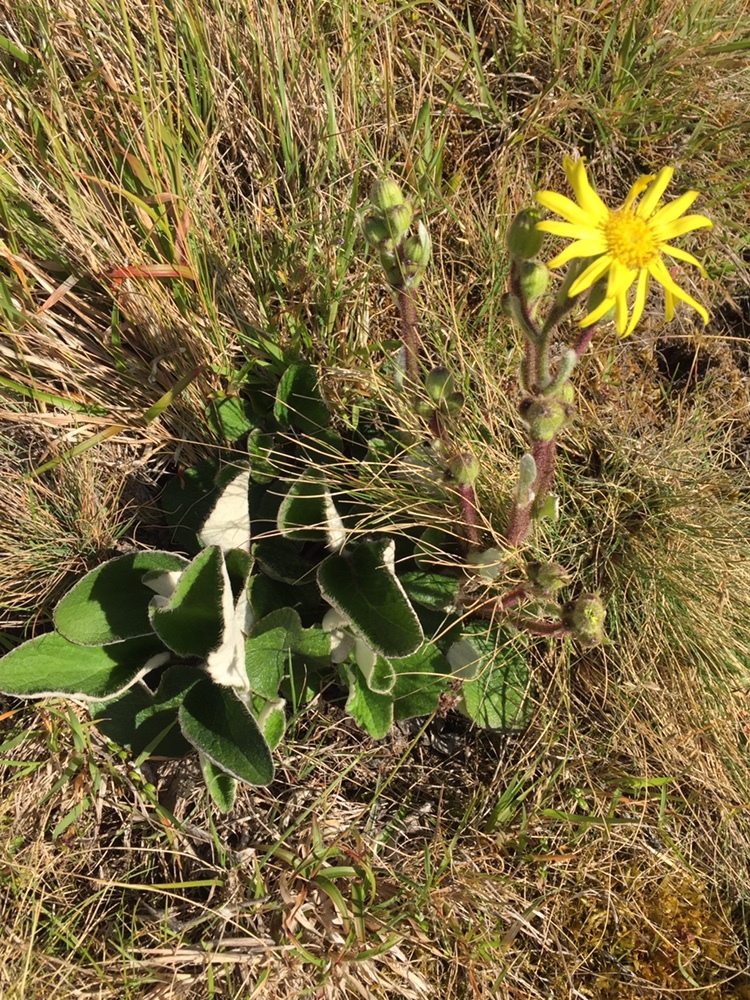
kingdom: Plantae
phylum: Tracheophyta
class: Magnoliopsida
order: Asterales
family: Asteraceae
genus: Brachyglottis
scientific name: Brachyglottis lagopus
